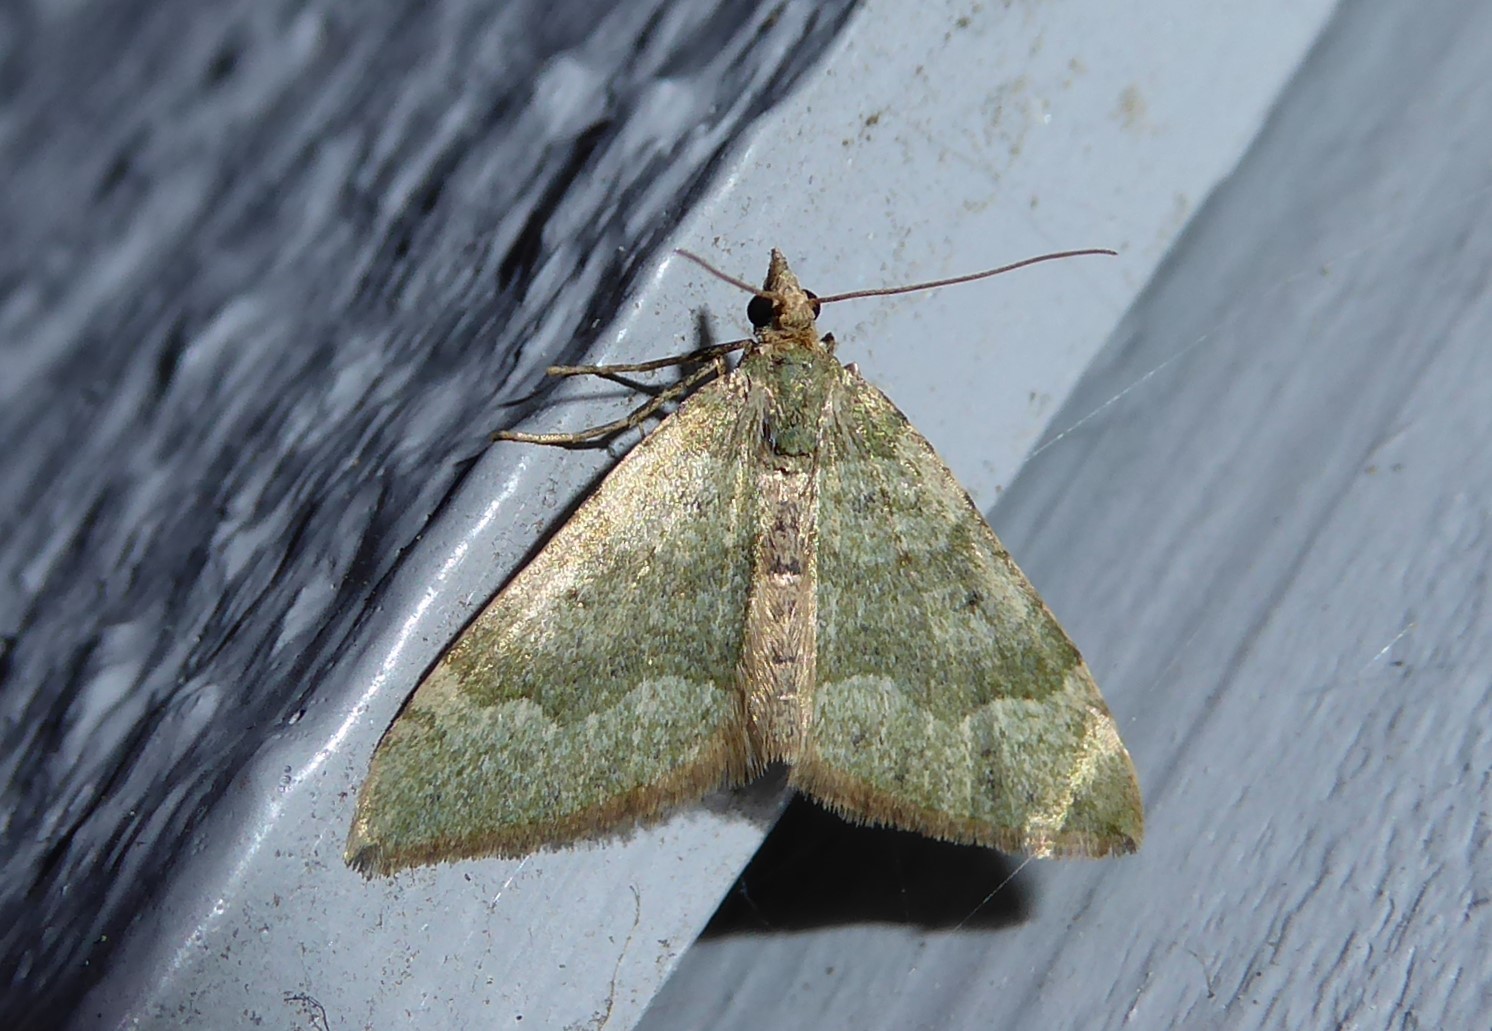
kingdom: Animalia
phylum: Arthropoda
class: Insecta
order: Lepidoptera
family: Geometridae
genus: Epyaxa
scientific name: Epyaxa rosearia
